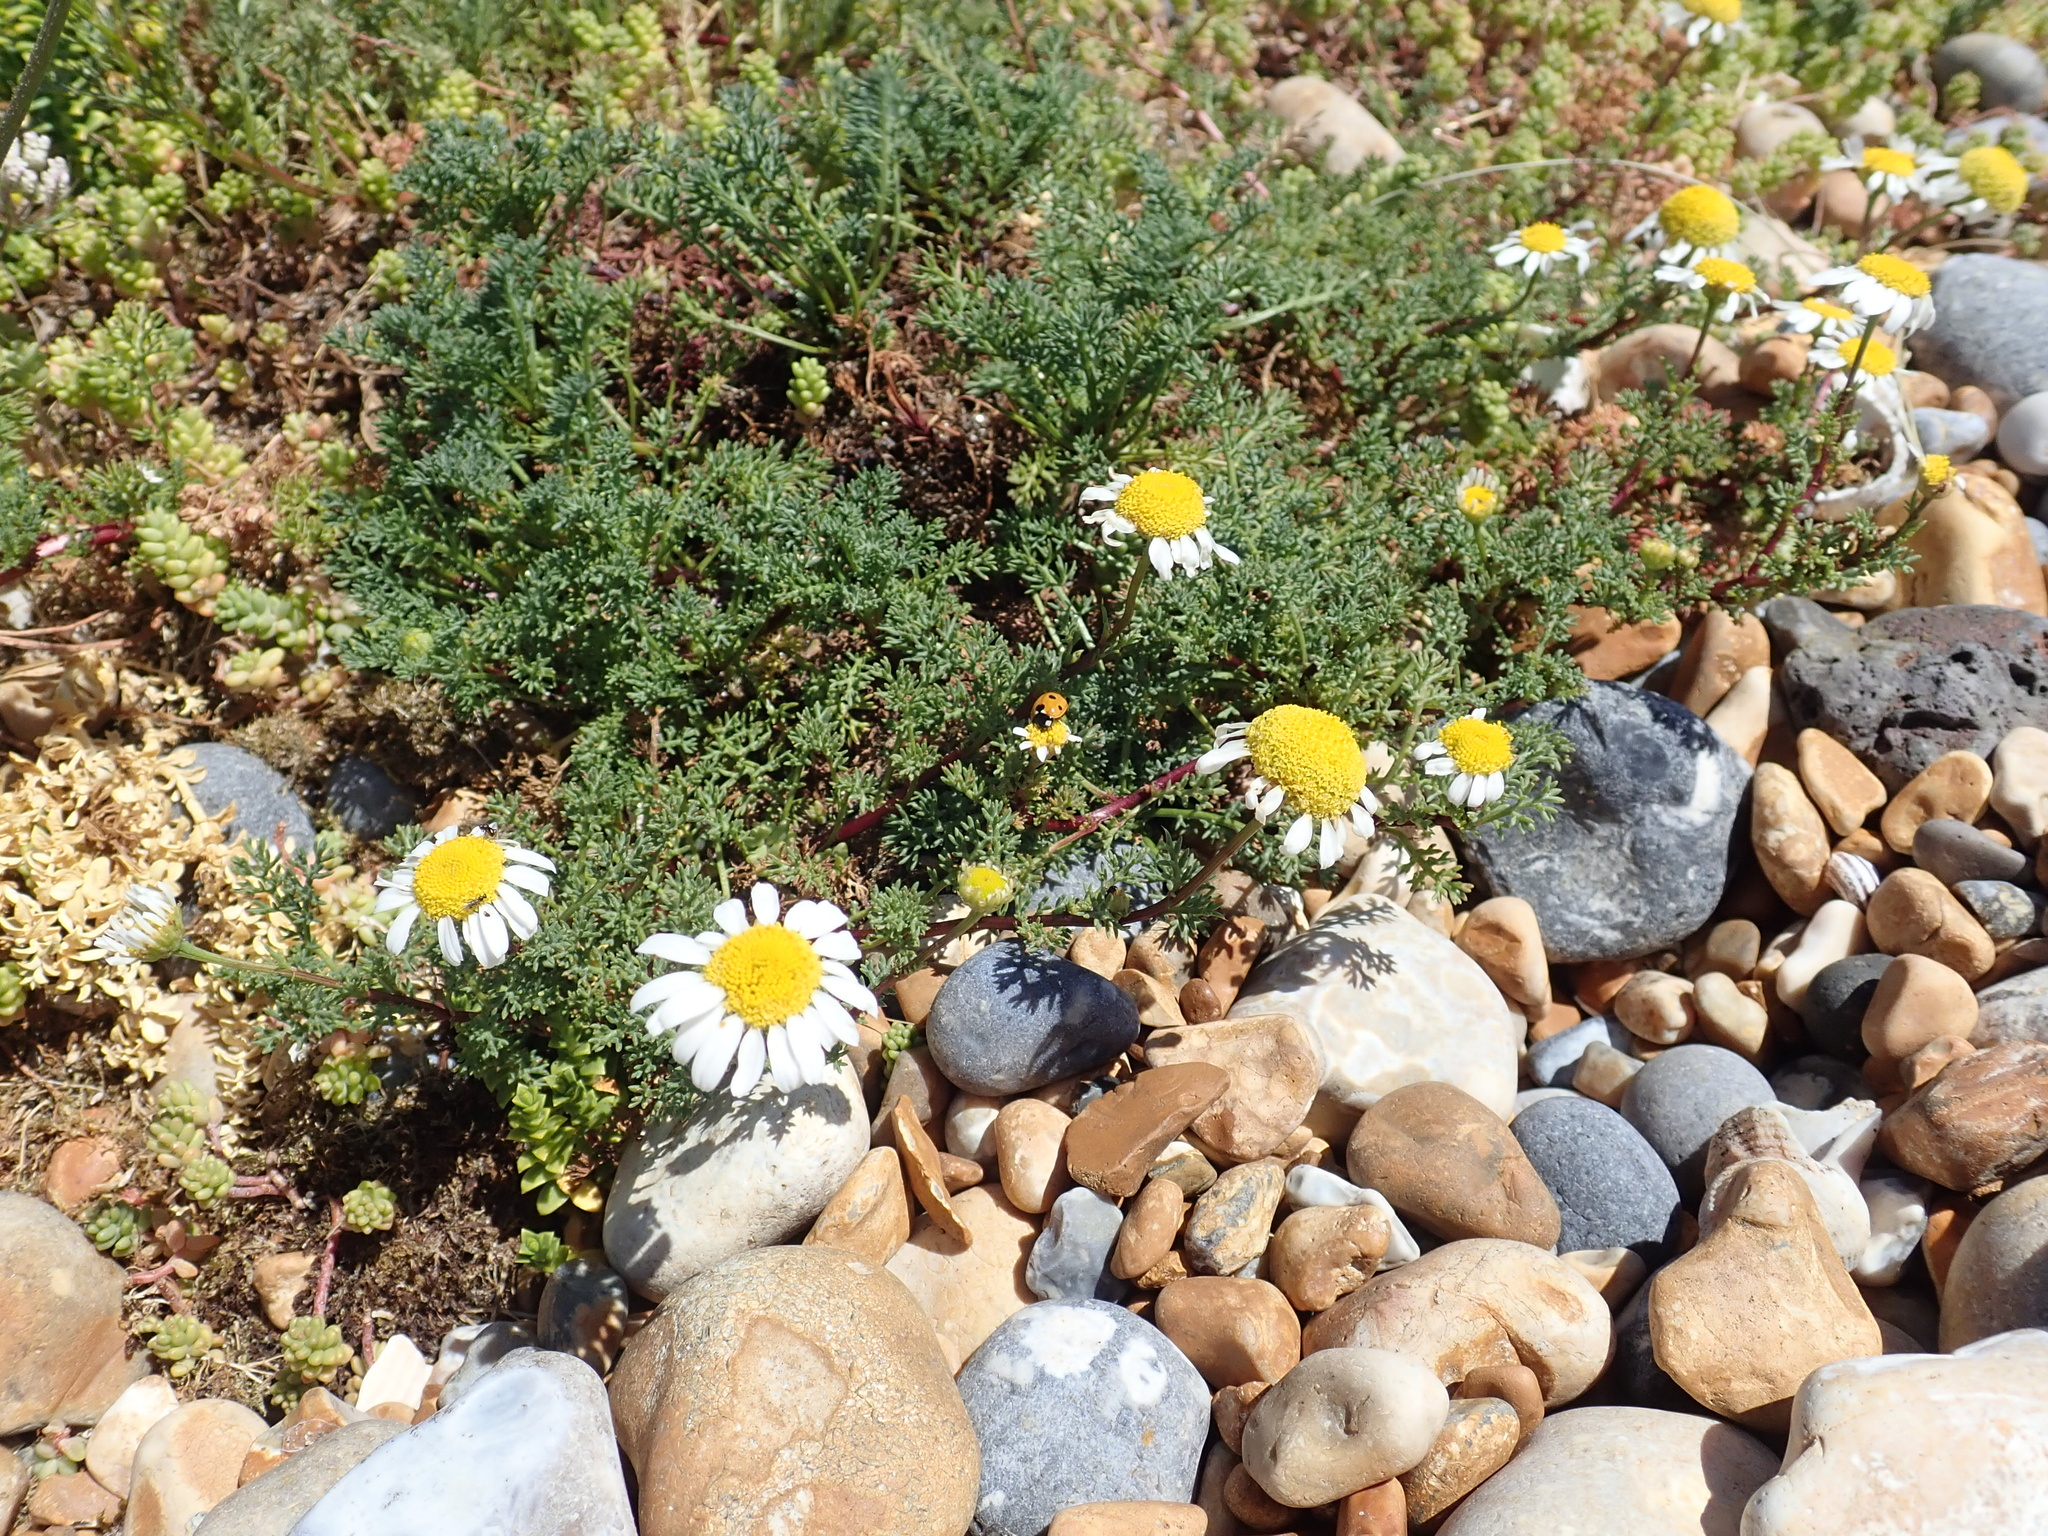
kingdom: Plantae
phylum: Tracheophyta
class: Magnoliopsida
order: Asterales
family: Asteraceae
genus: Tripleurospermum
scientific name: Tripleurospermum maritimum
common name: Sea mayweed
